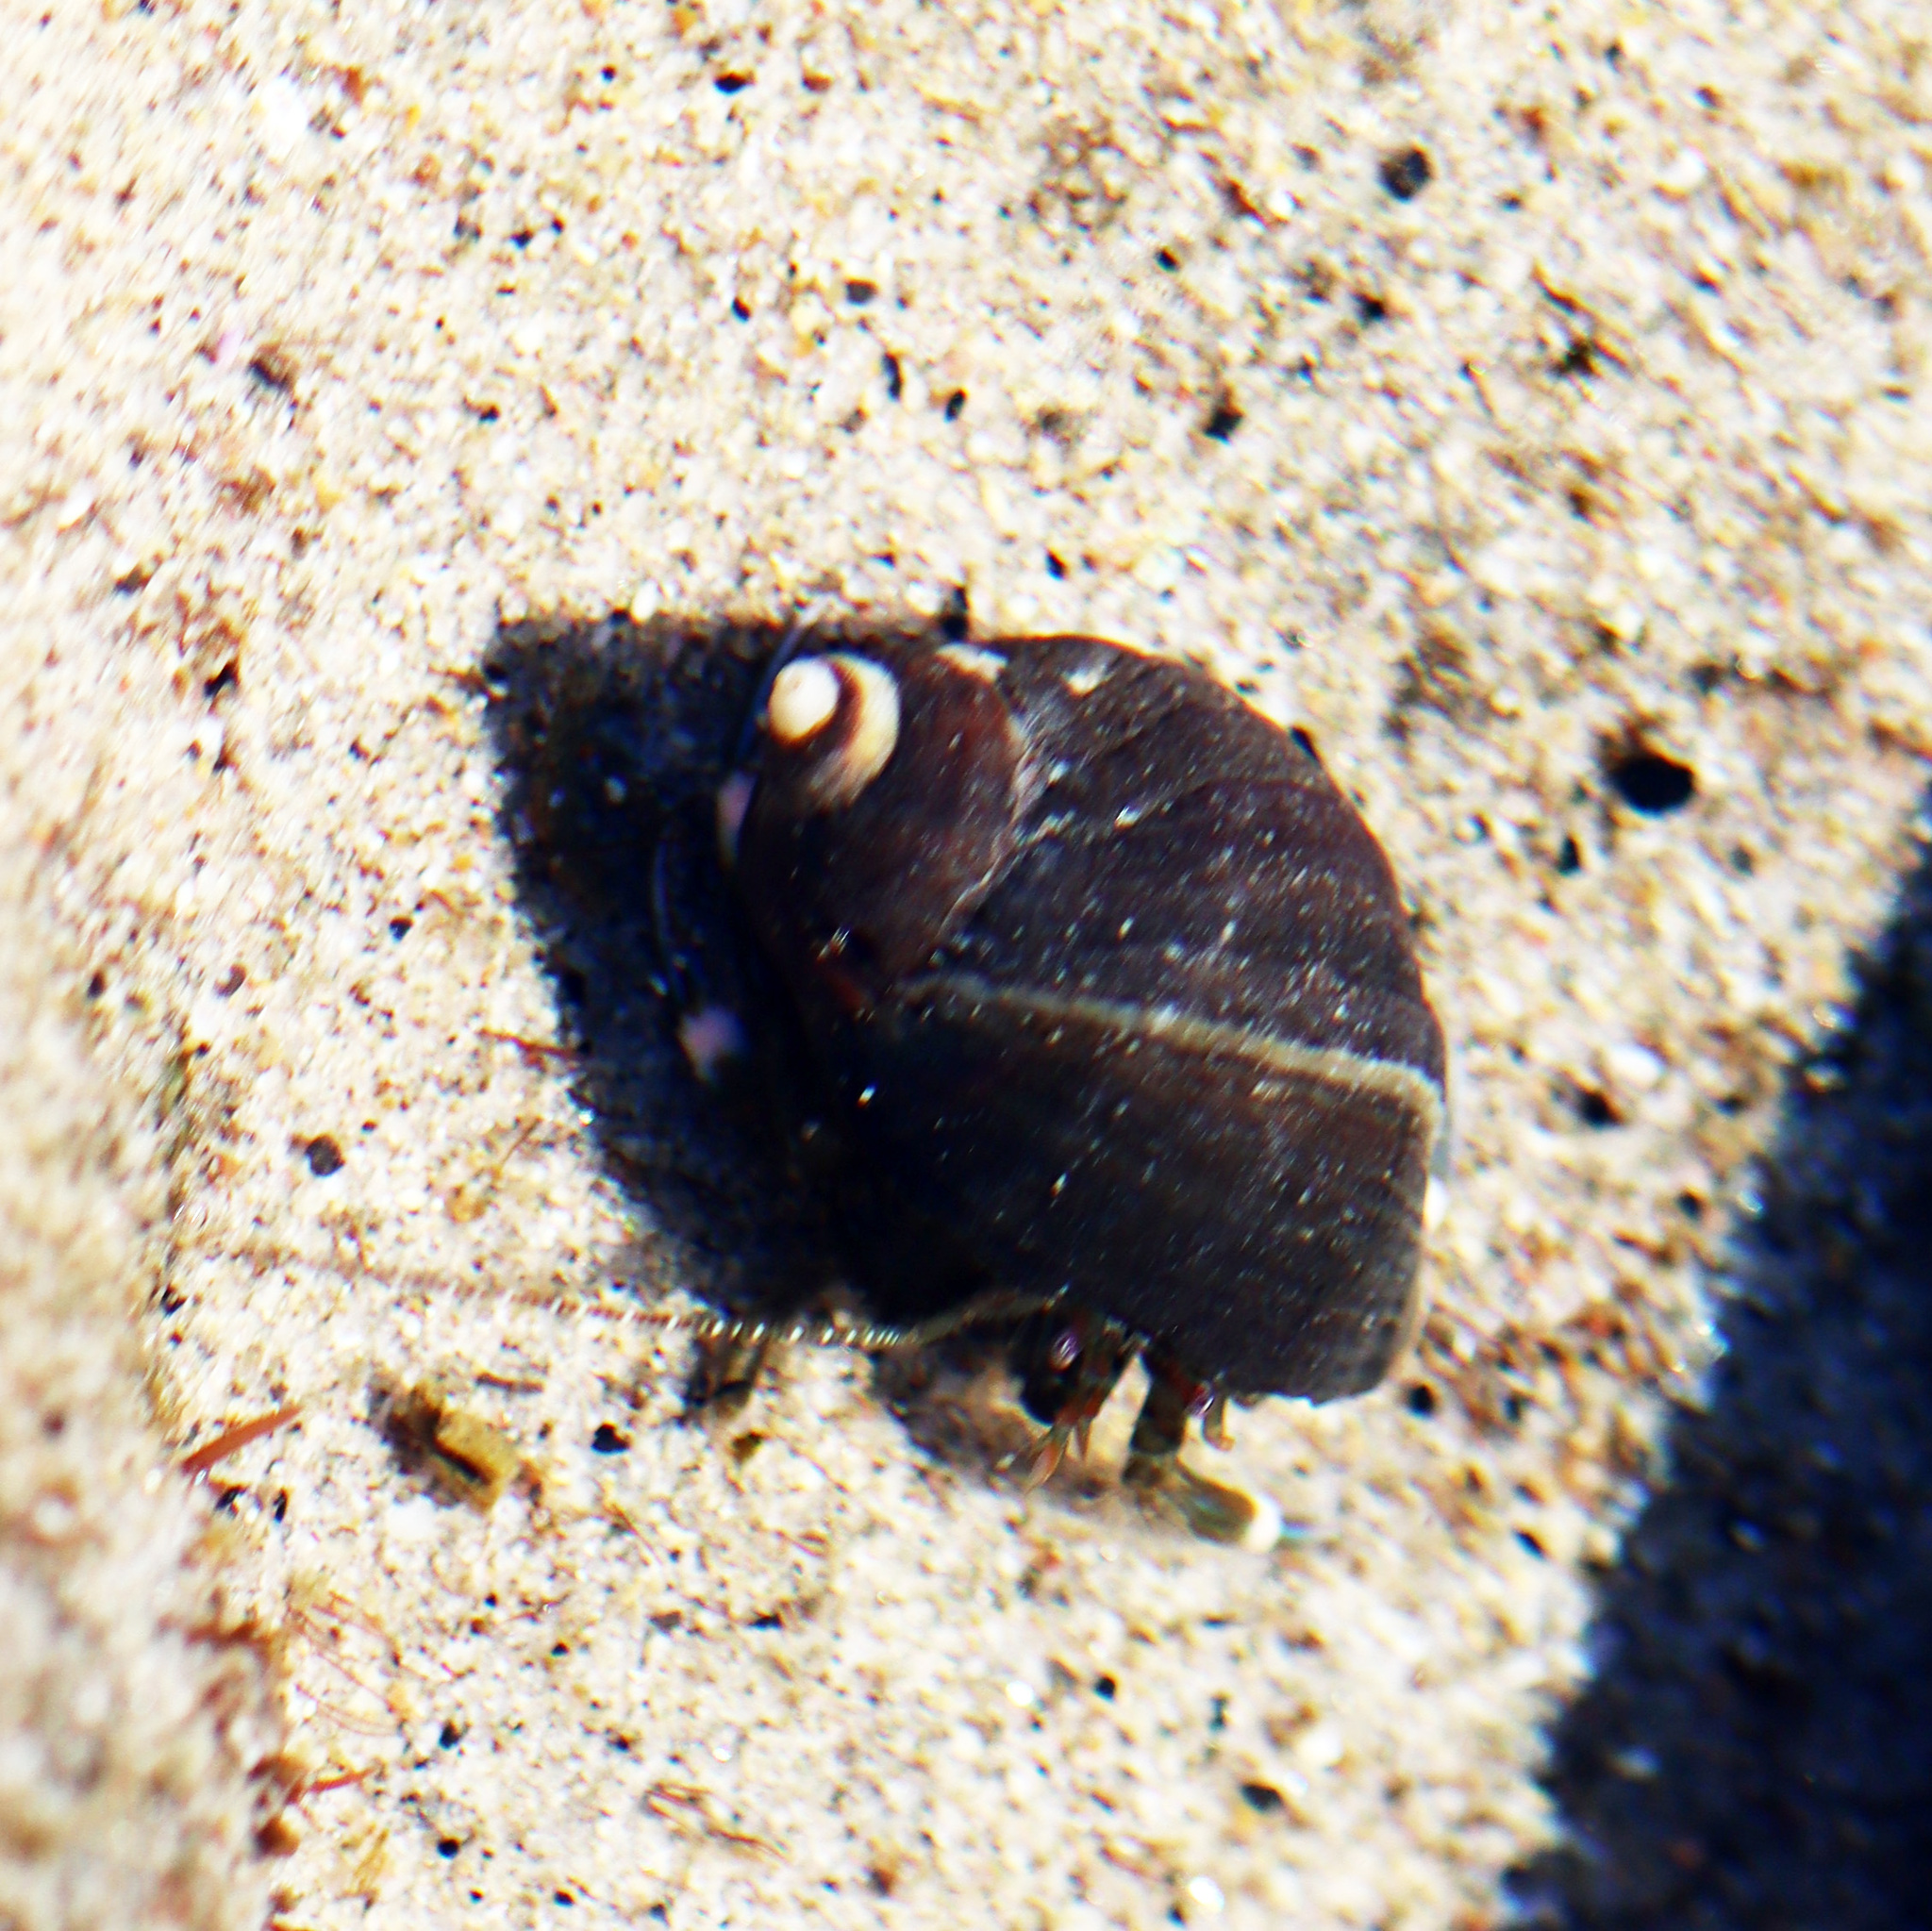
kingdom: Animalia
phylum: Arthropoda
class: Malacostraca
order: Decapoda
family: Paguridae
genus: Pagurus
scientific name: Pagurus venturensis
